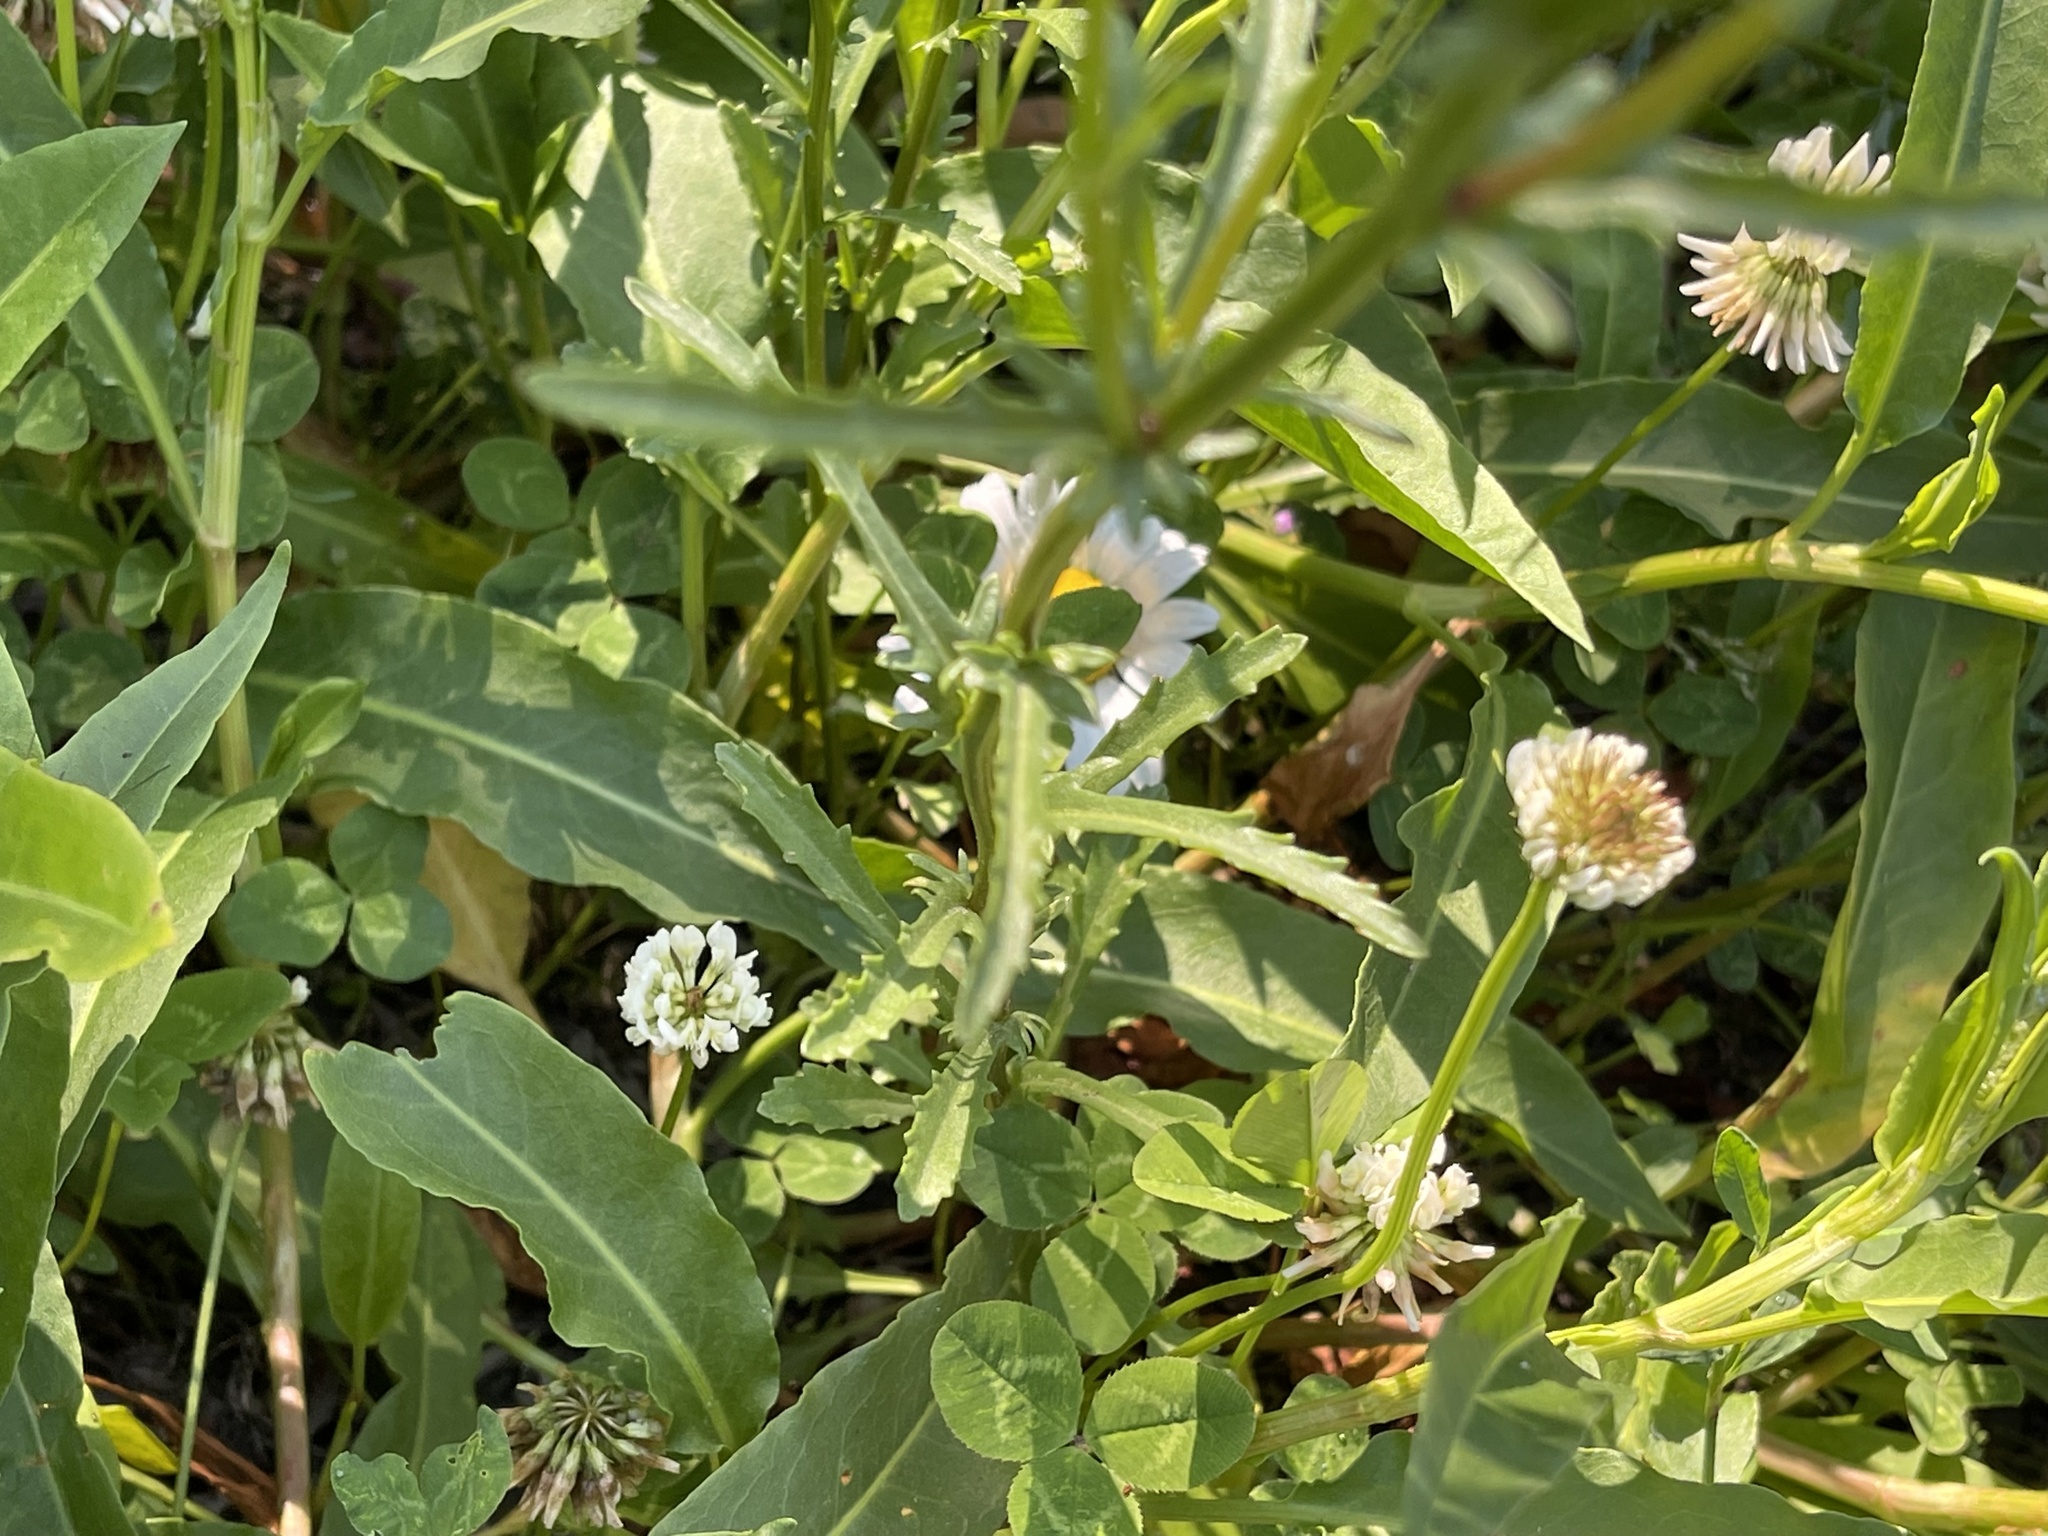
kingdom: Plantae
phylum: Tracheophyta
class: Magnoliopsida
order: Asterales
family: Asteraceae
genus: Leucanthemum
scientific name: Leucanthemum vulgare
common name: Oxeye daisy
